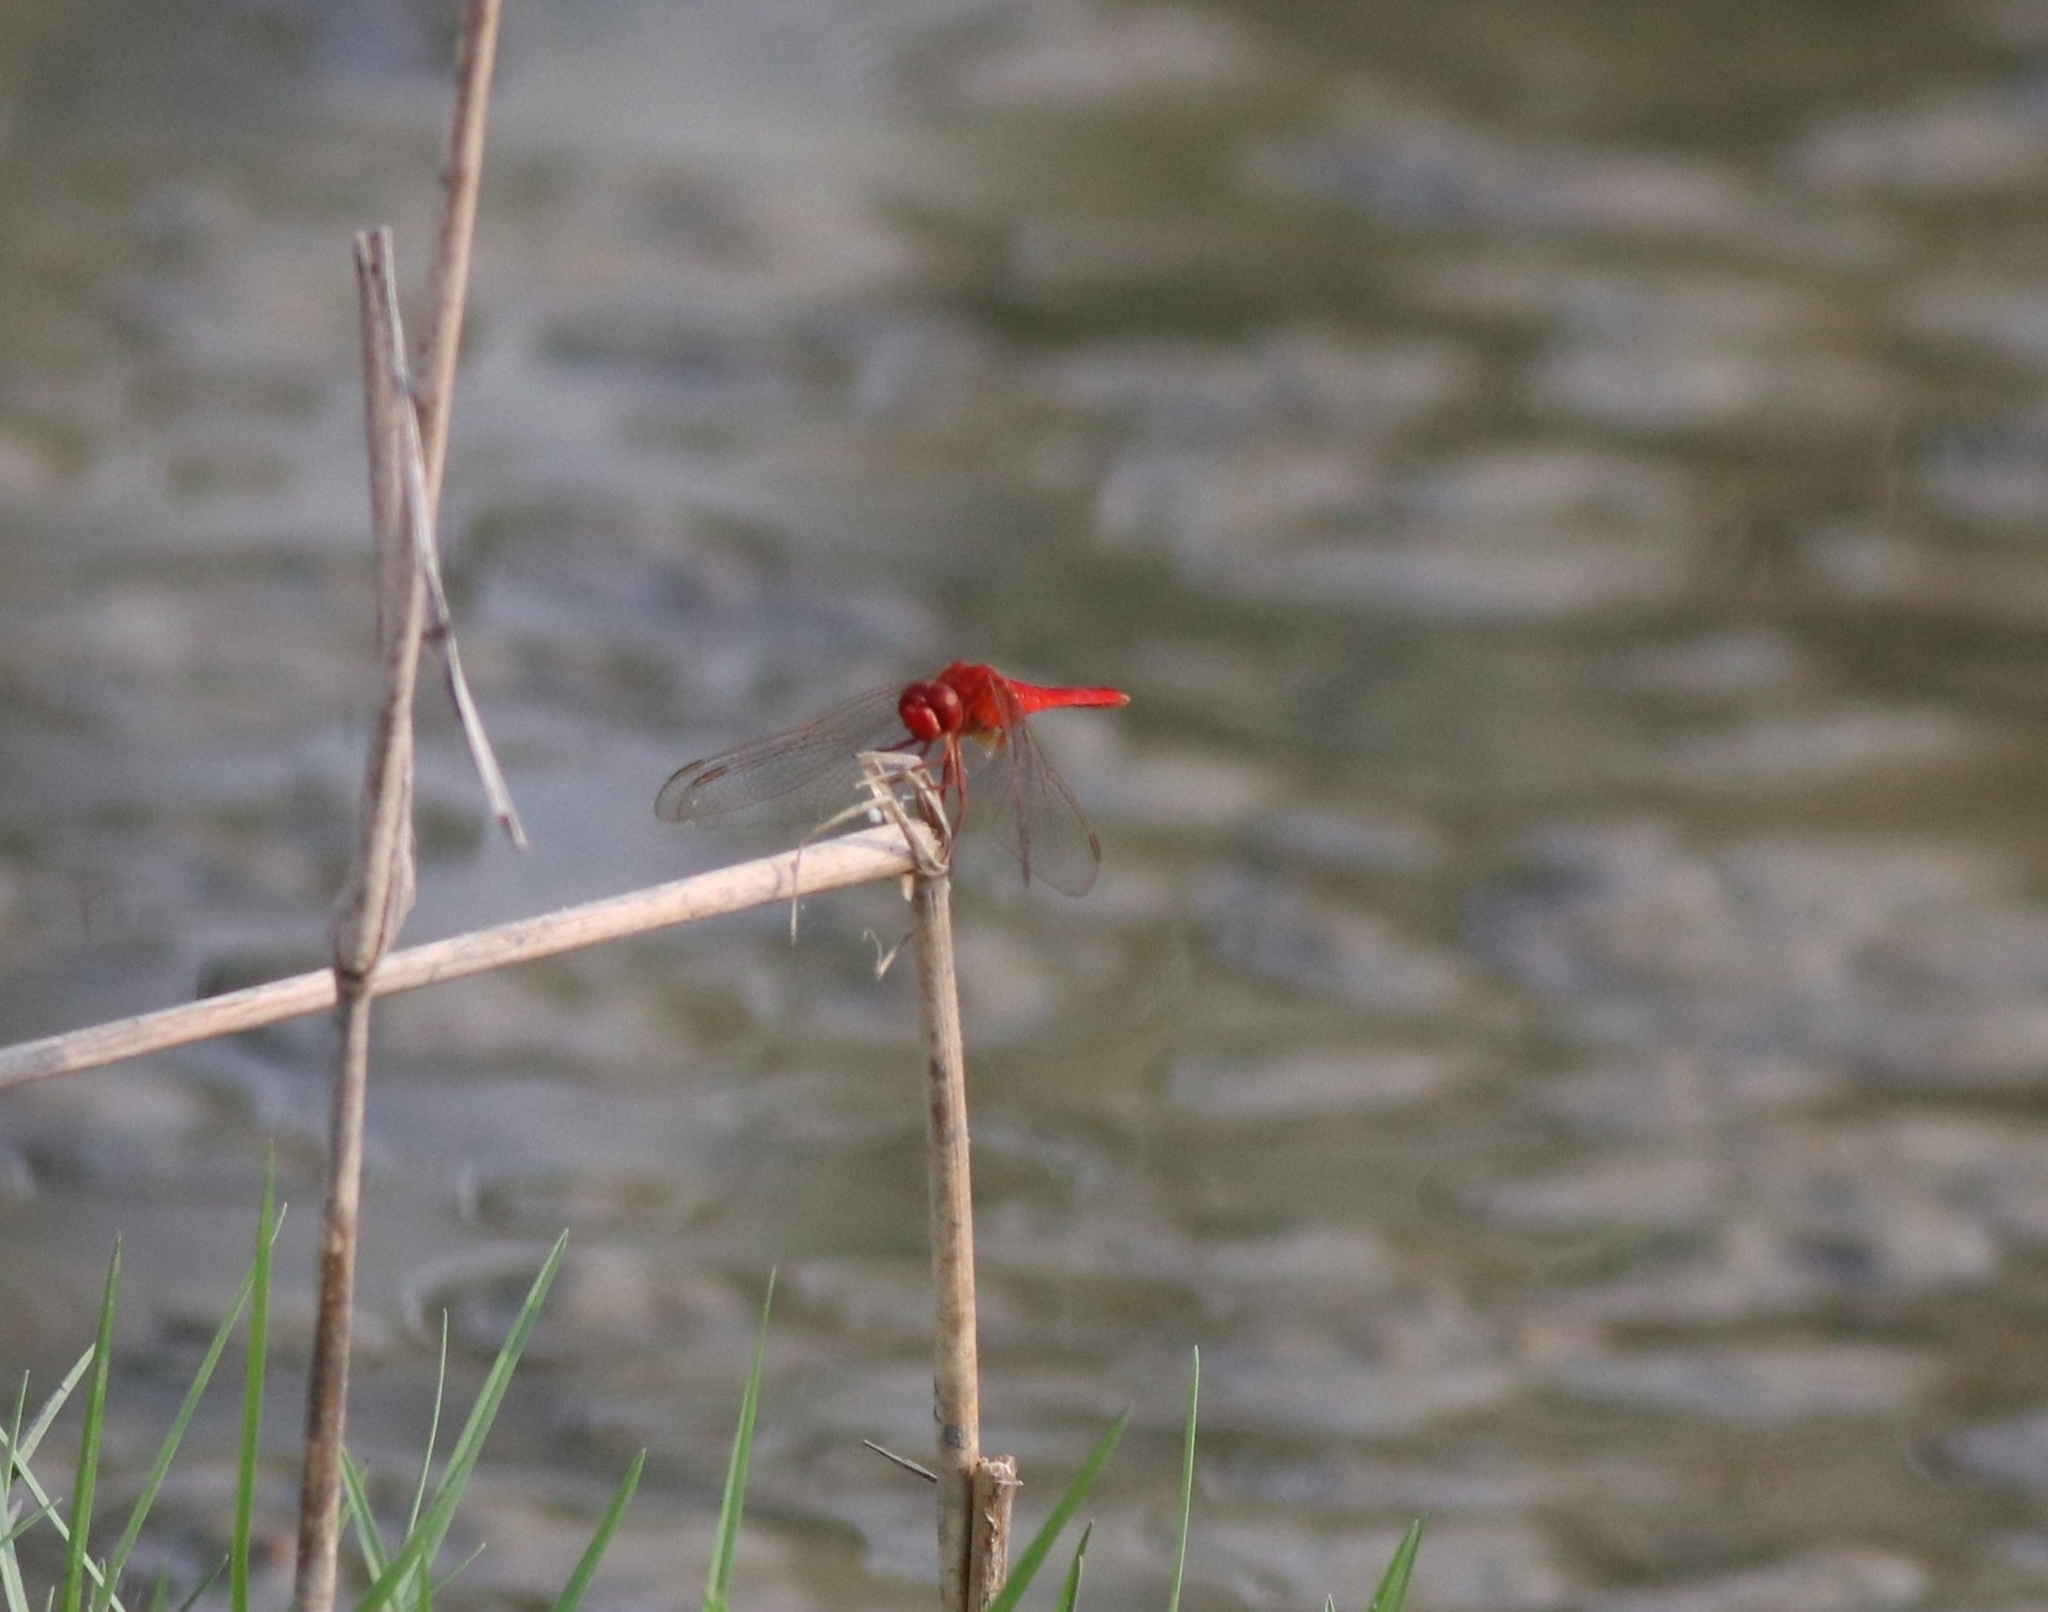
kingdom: Animalia
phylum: Arthropoda
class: Insecta
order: Odonata
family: Libellulidae
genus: Crocothemis
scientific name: Crocothemis servilia
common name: Scarlet skimmer
